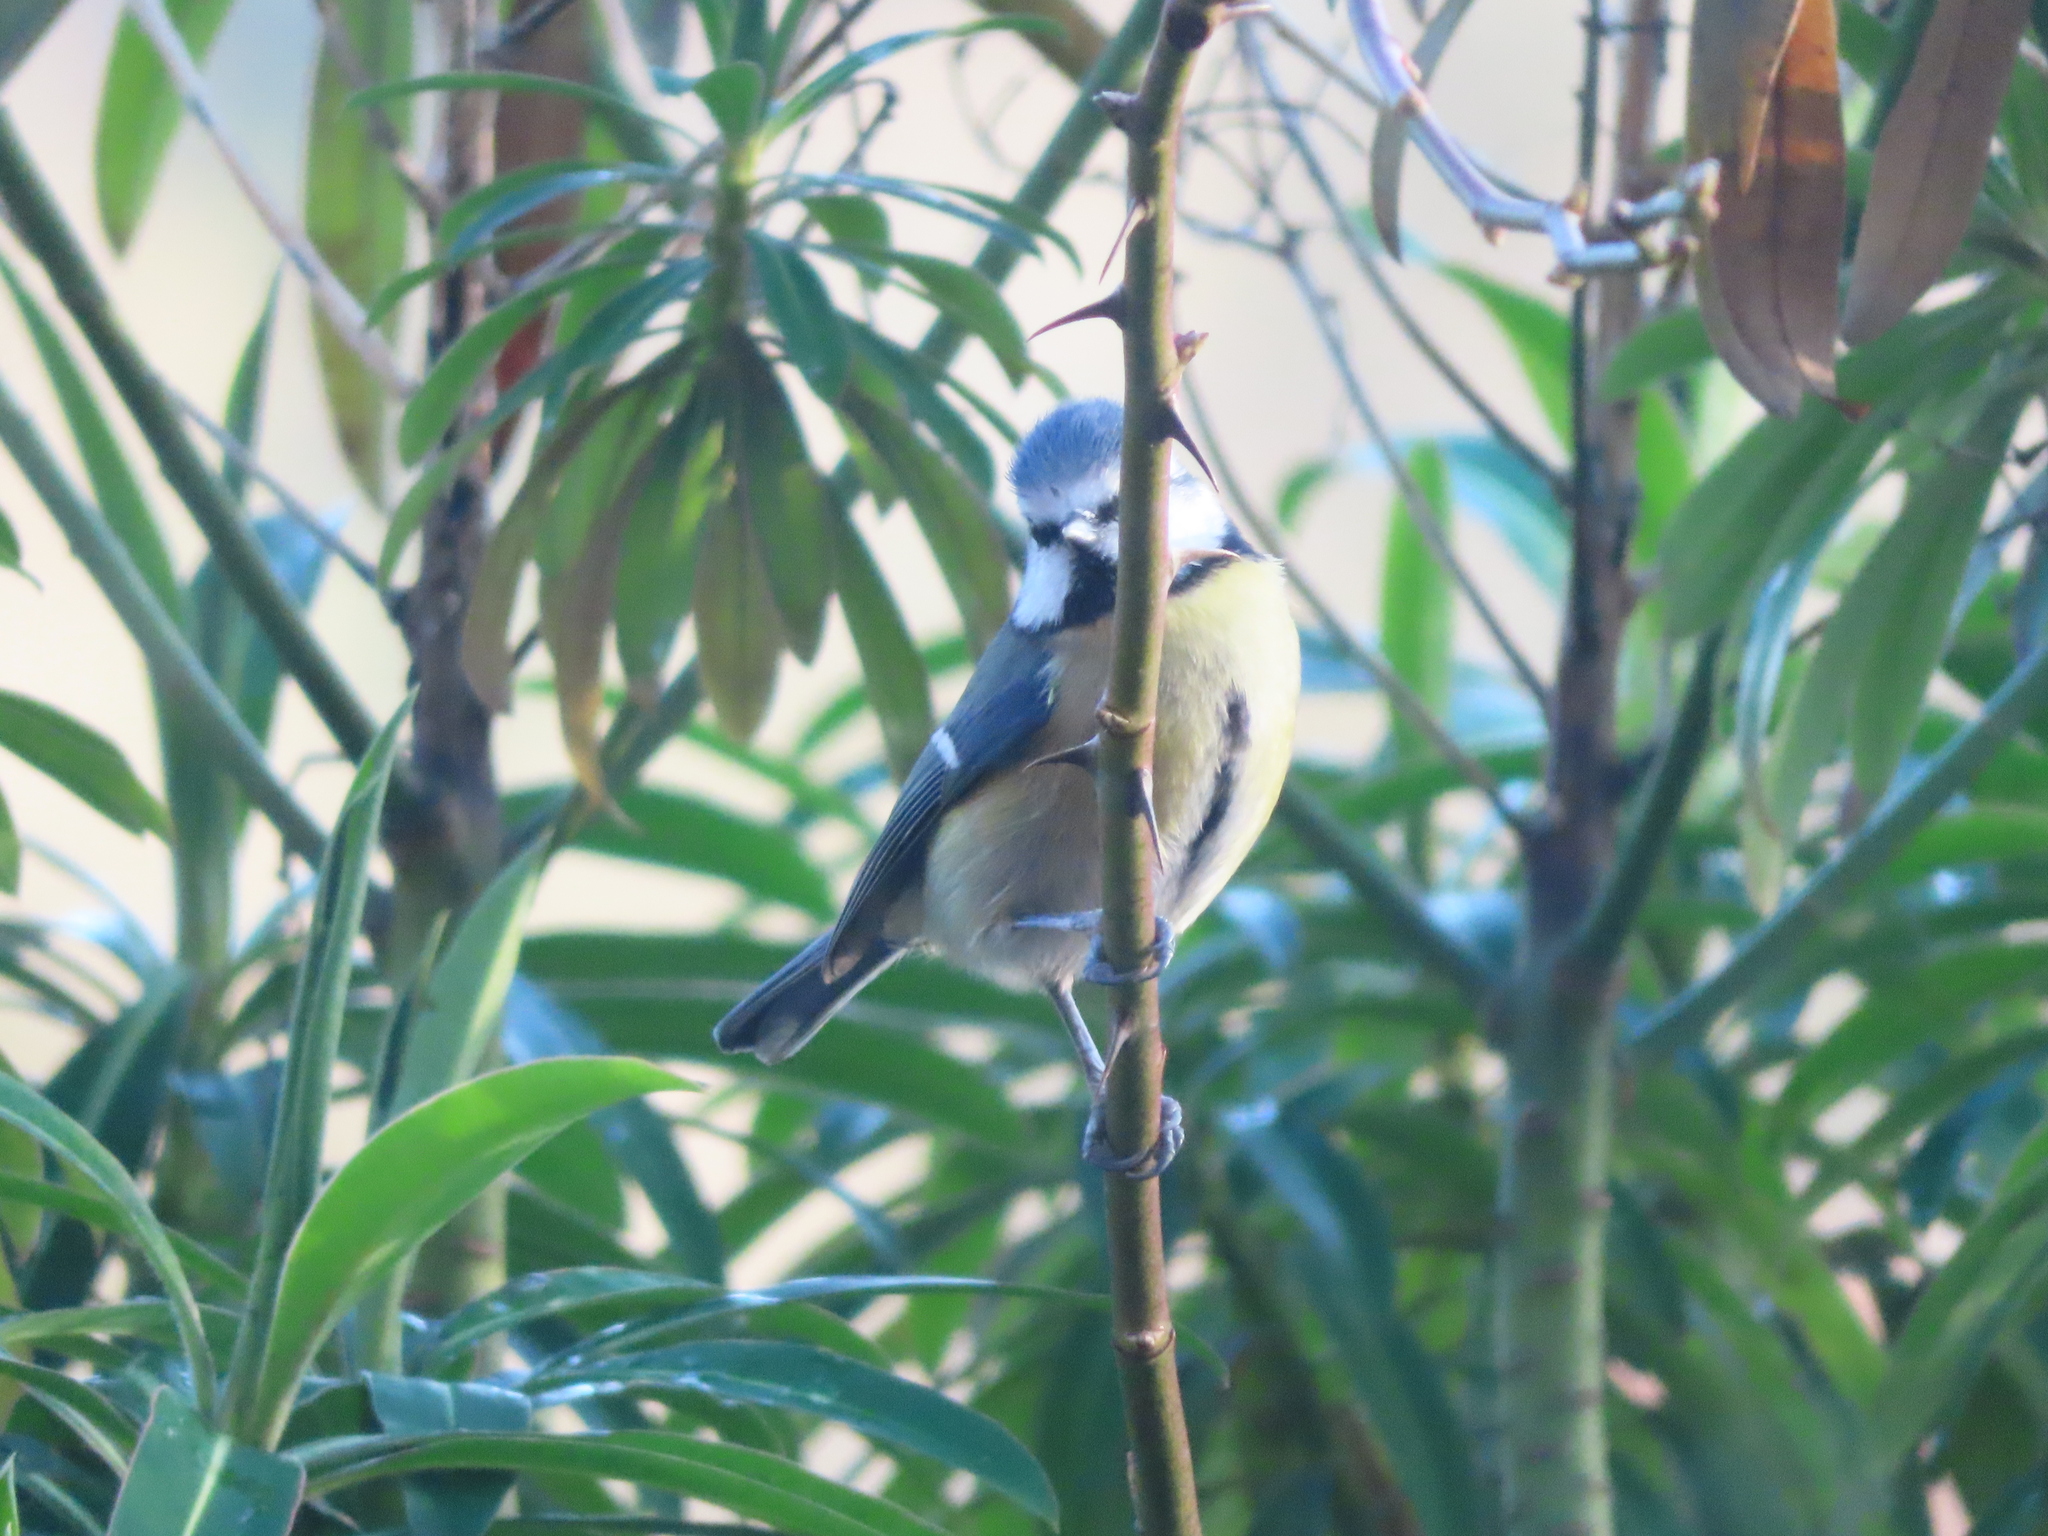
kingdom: Animalia
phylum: Chordata
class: Aves
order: Passeriformes
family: Paridae
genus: Cyanistes
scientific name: Cyanistes caeruleus
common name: Eurasian blue tit
